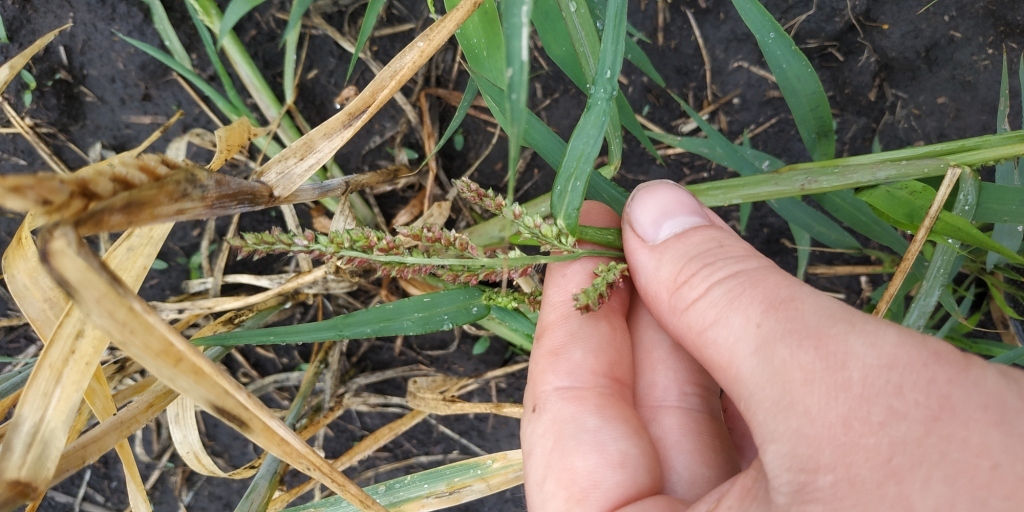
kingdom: Plantae
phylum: Tracheophyta
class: Liliopsida
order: Poales
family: Poaceae
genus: Echinochloa
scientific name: Echinochloa crus-galli
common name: Cockspur
